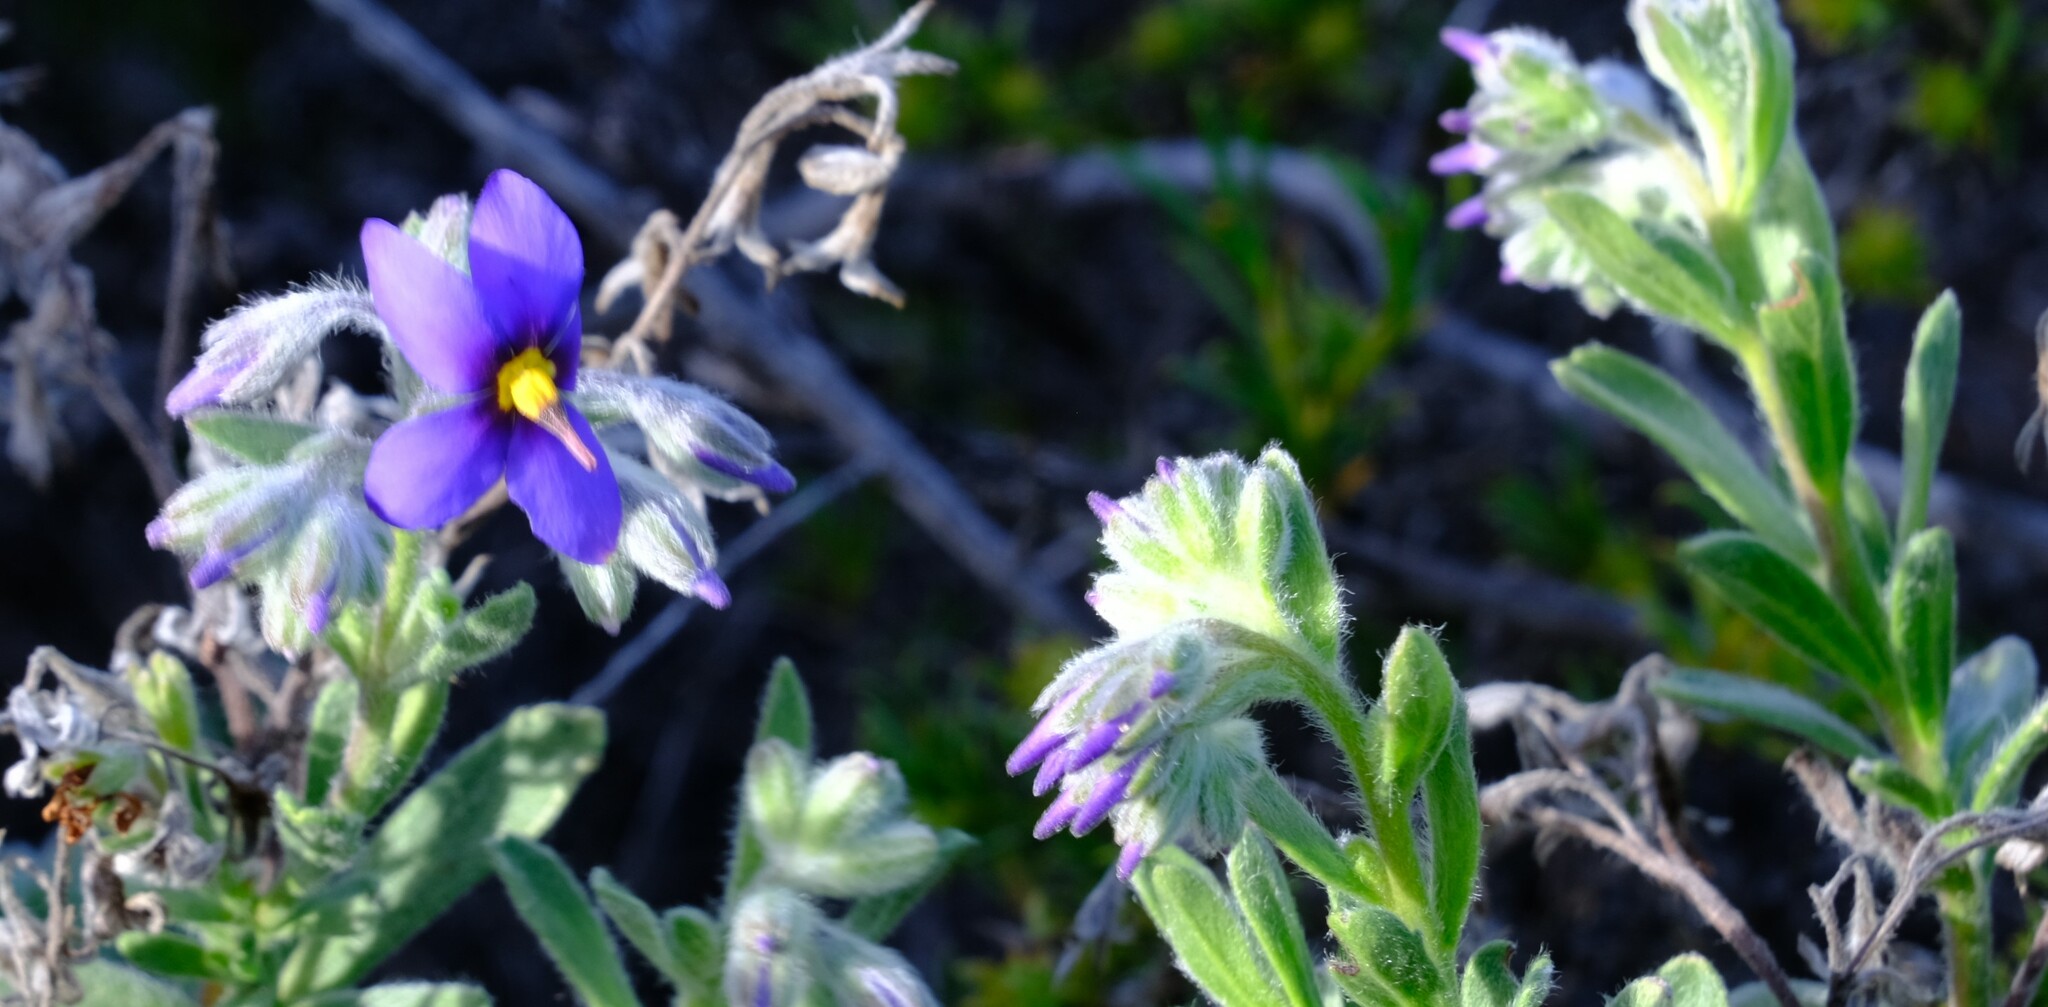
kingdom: Plantae
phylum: Tracheophyta
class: Magnoliopsida
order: Boraginales
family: Ehretiaceae
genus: Halgania
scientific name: Halgania sericiflora
